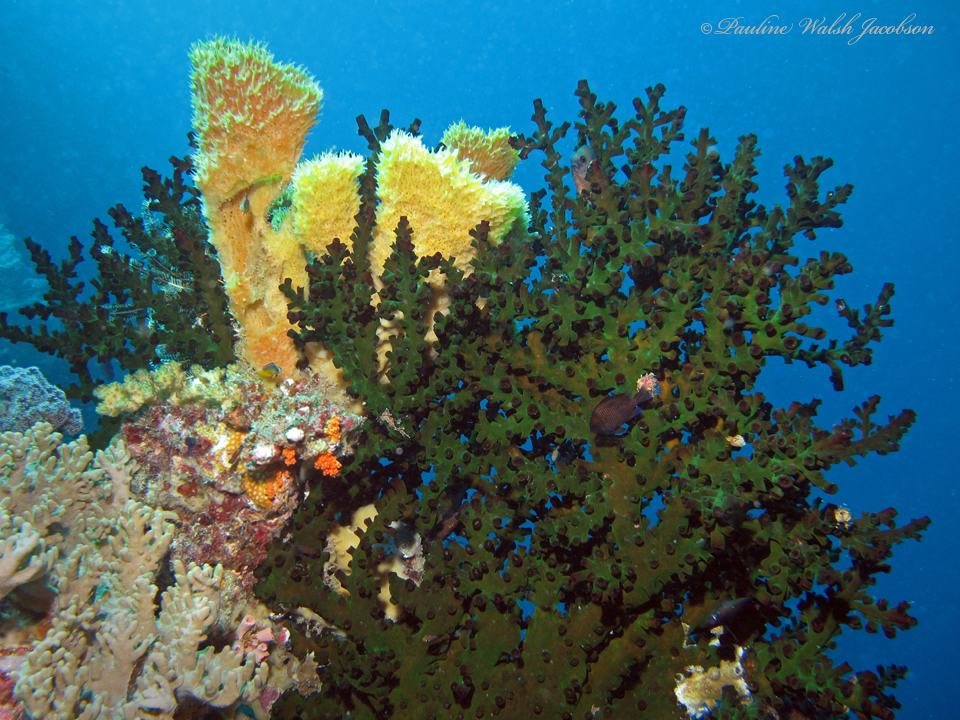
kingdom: Animalia
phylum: Cnidaria
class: Anthozoa
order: Scleractinia
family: Dendrophylliidae
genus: Tubastraea
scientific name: Tubastraea micranthus
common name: Black sun coral
